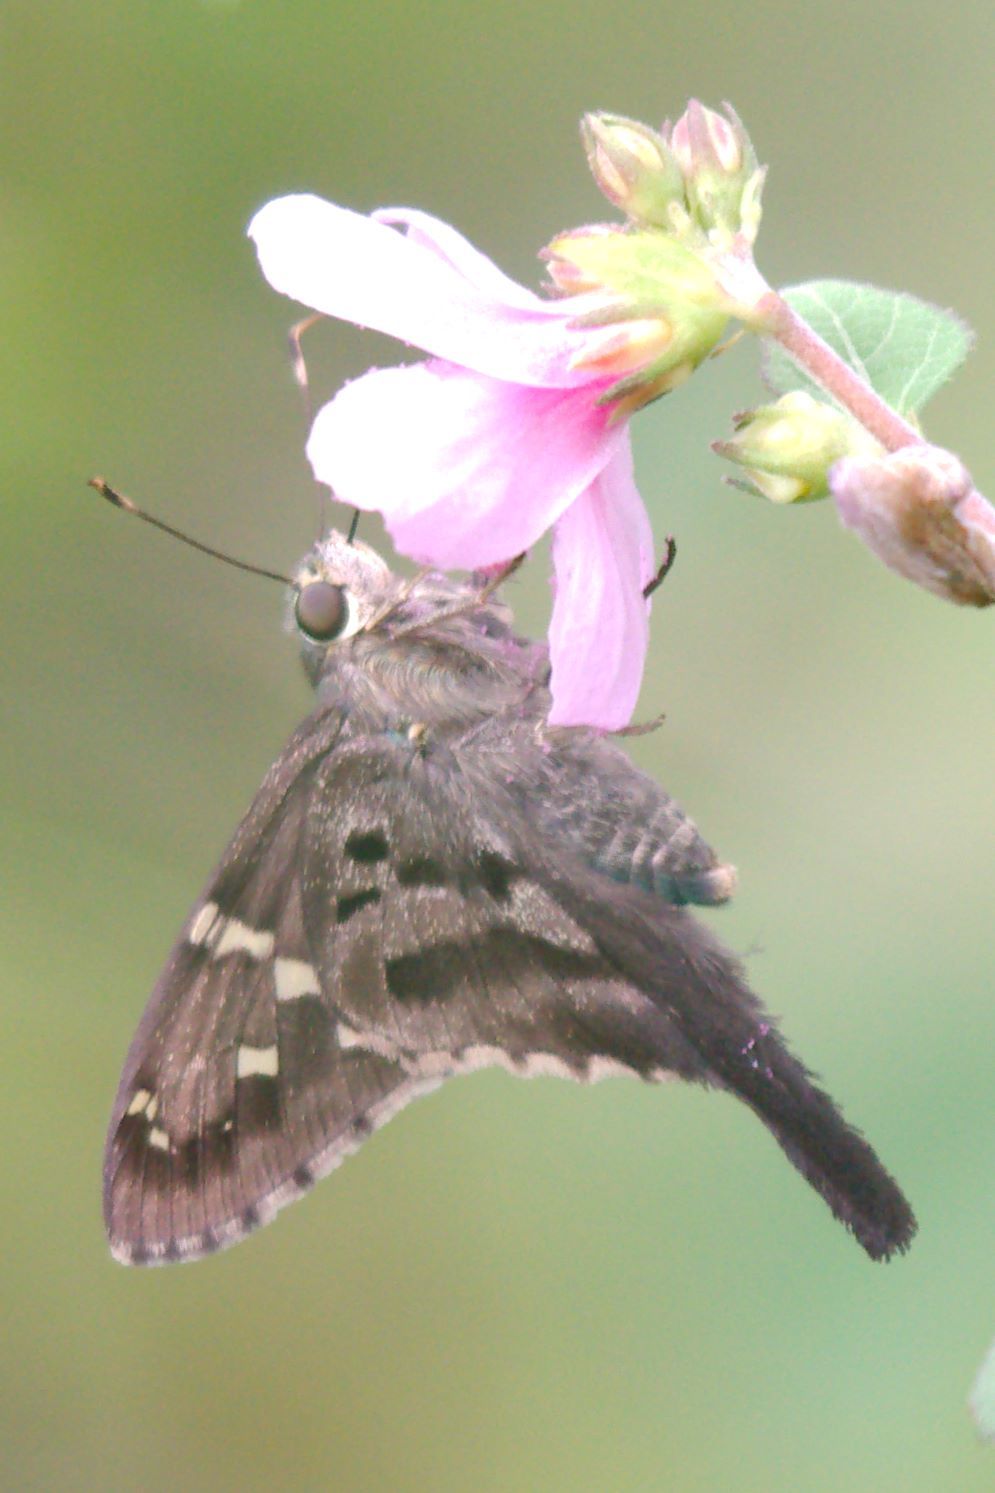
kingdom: Animalia
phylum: Arthropoda
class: Insecta
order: Lepidoptera
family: Hesperiidae
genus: Urbanus
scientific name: Urbanus proteus
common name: Long-tailed skipper
